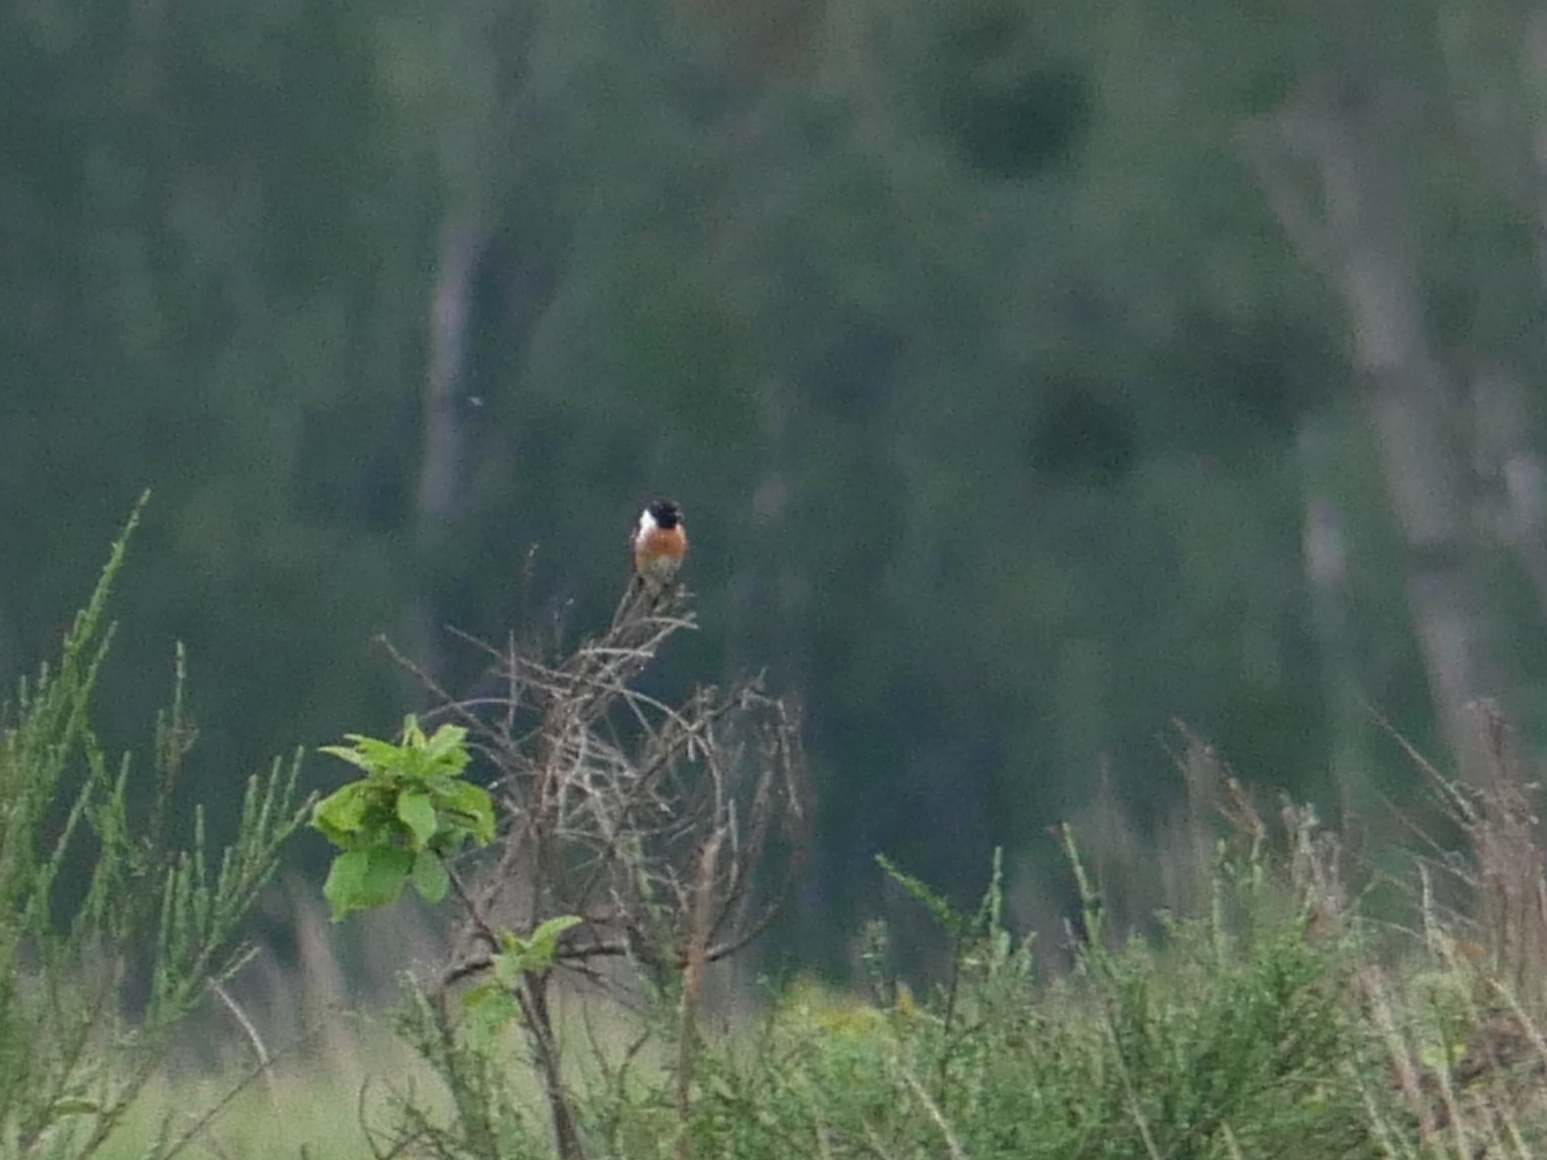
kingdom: Animalia
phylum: Chordata
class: Aves
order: Passeriformes
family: Muscicapidae
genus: Saxicola
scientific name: Saxicola rubicola
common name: European stonechat
